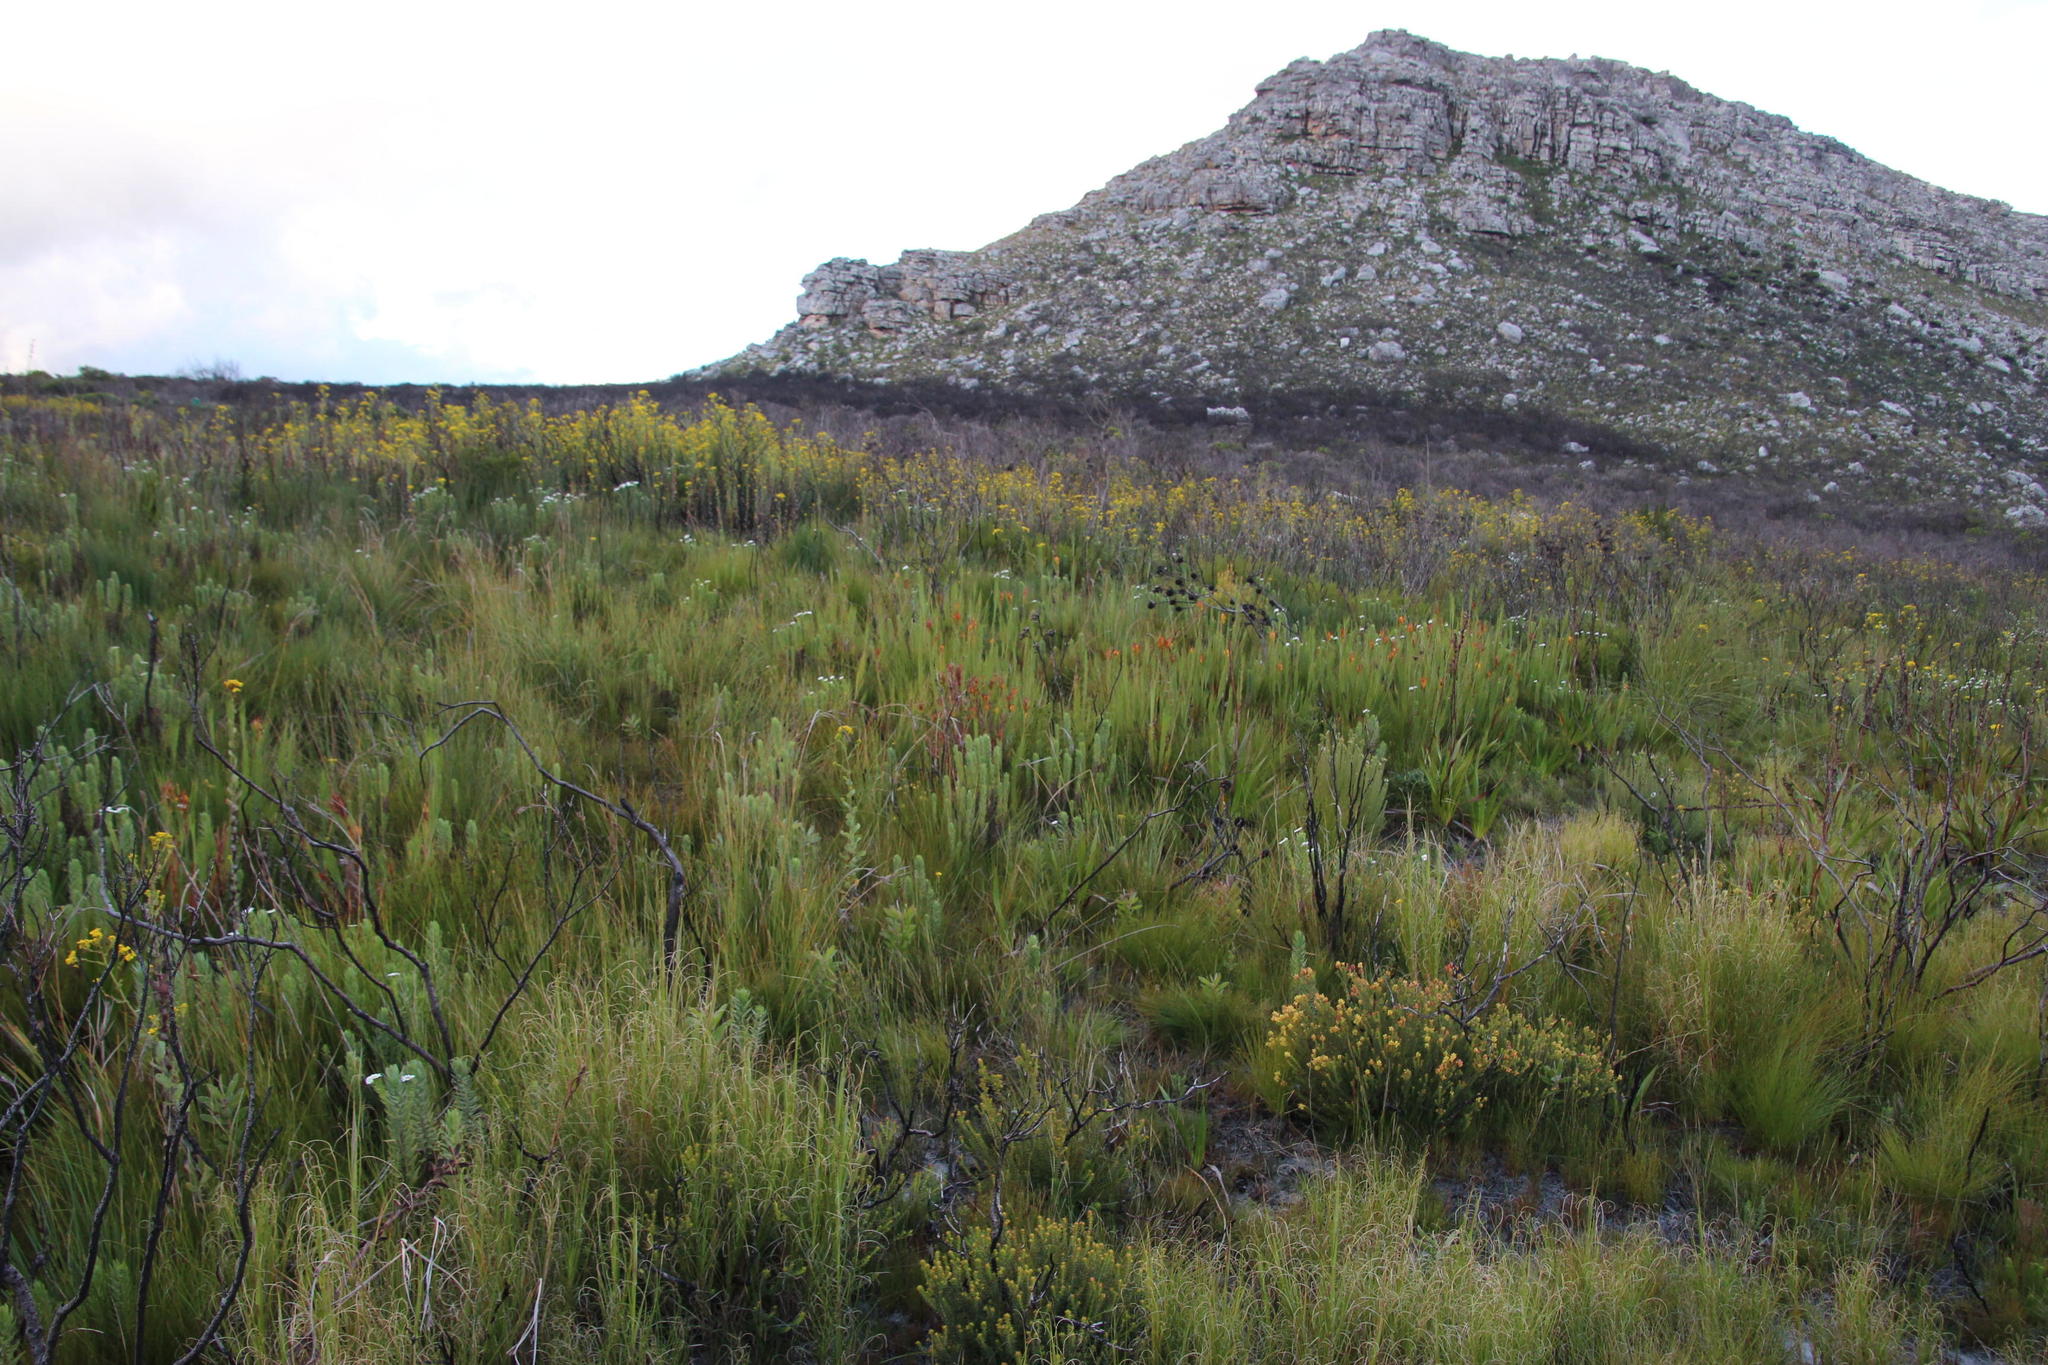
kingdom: Plantae
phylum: Tracheophyta
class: Liliopsida
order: Asparagales
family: Iridaceae
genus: Witsenia
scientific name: Witsenia maura
